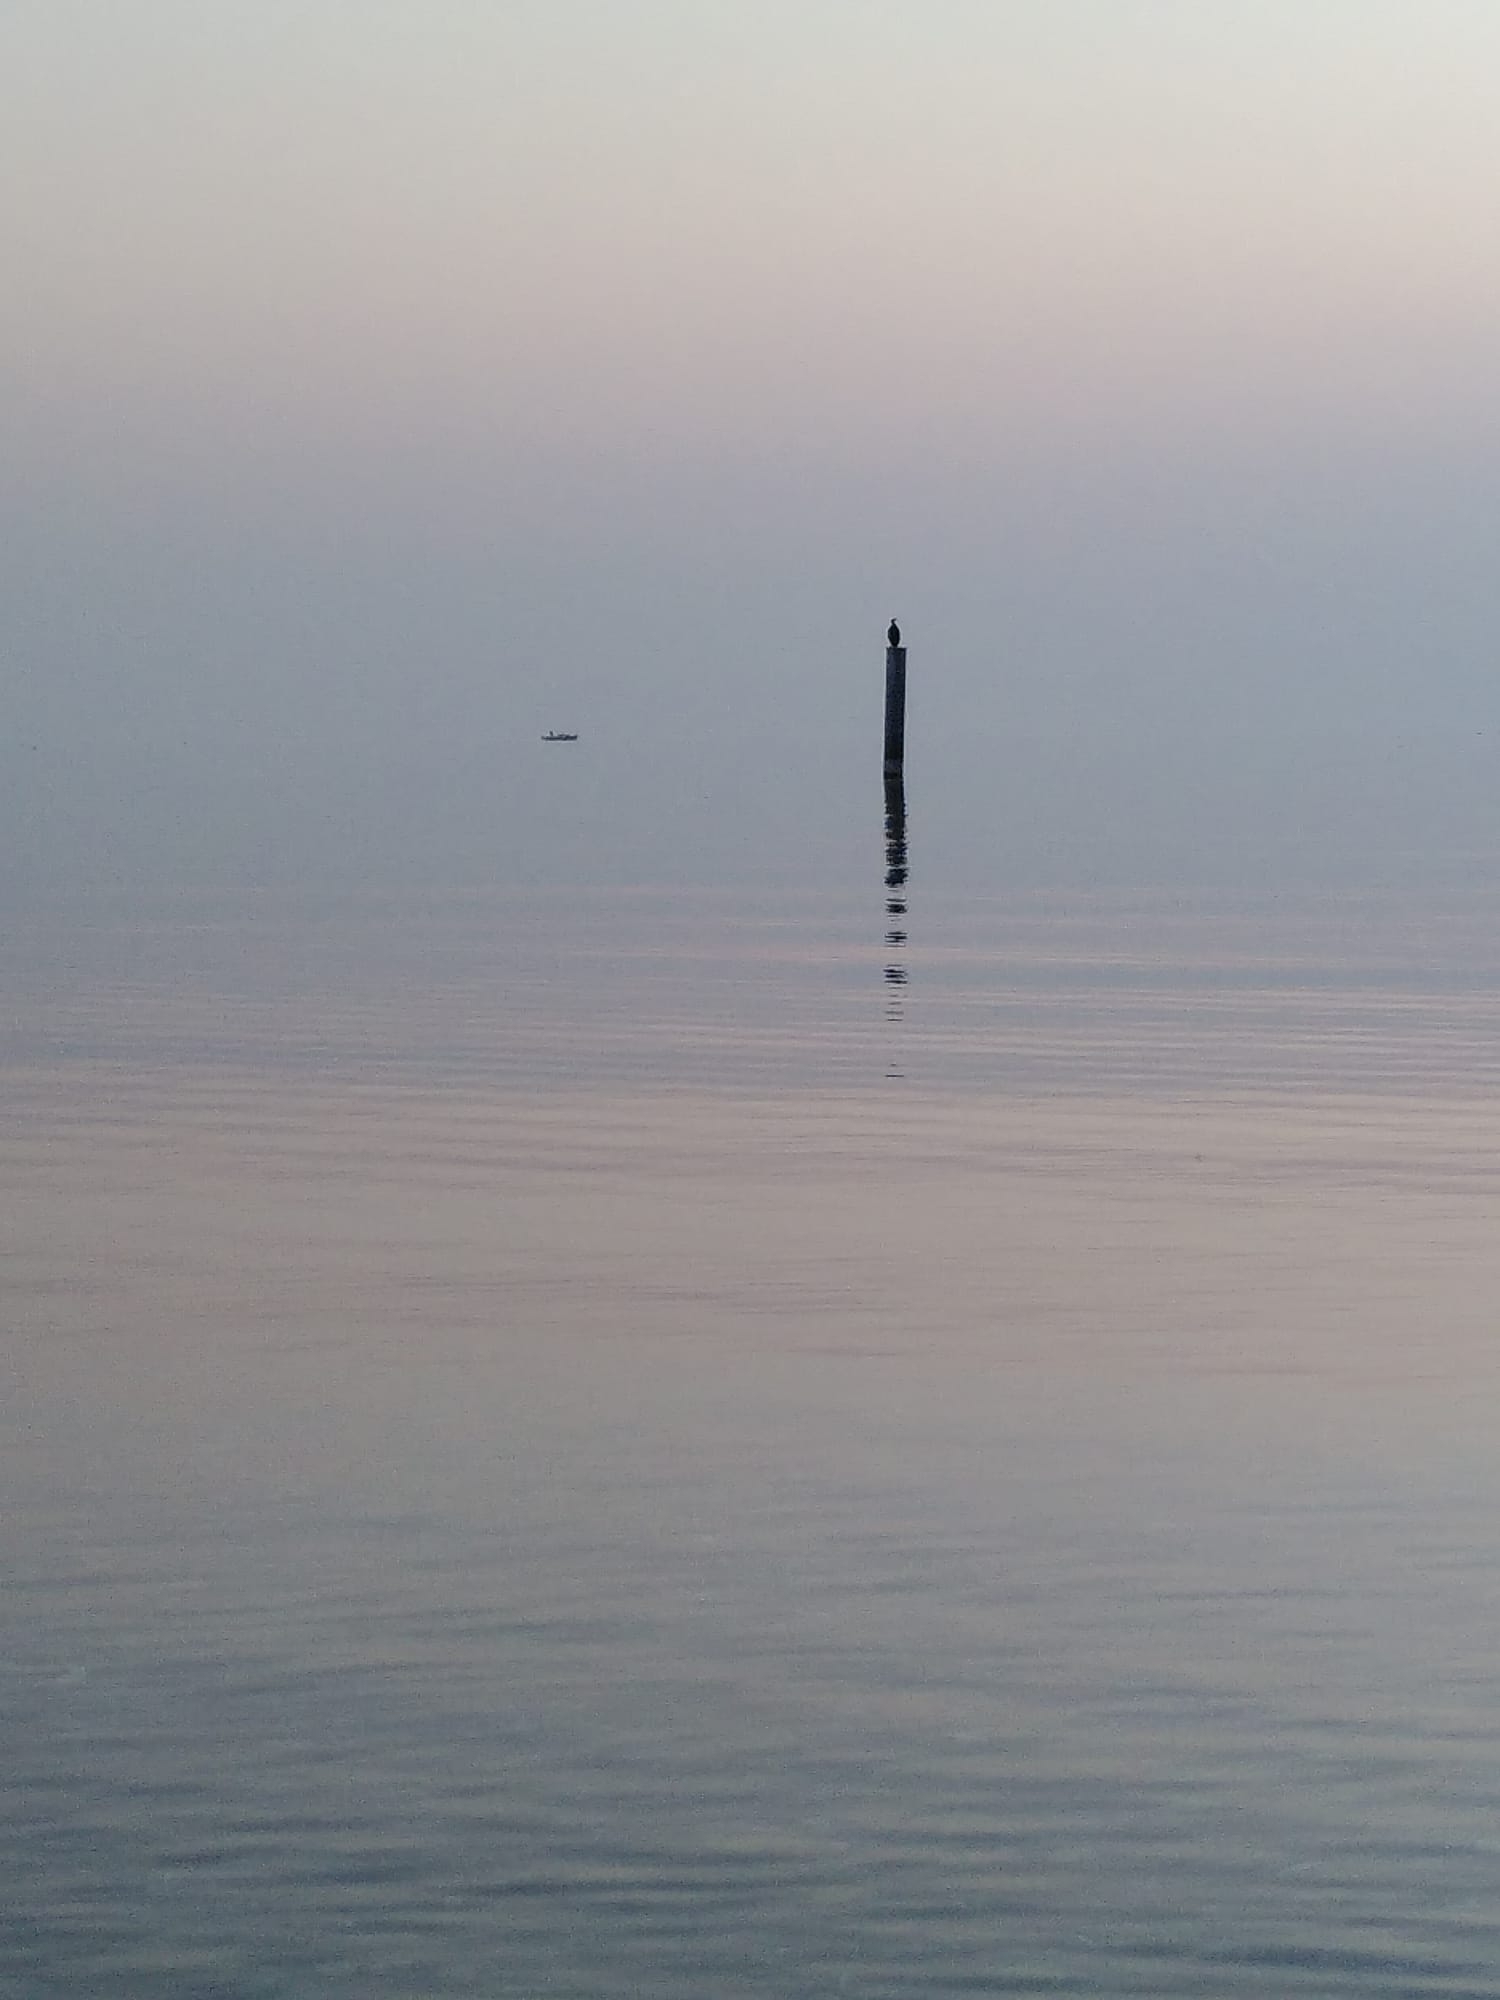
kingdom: Animalia
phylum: Chordata
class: Aves
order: Suliformes
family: Phalacrocoracidae
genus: Phalacrocorax
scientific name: Phalacrocorax carbo
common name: Great cormorant
